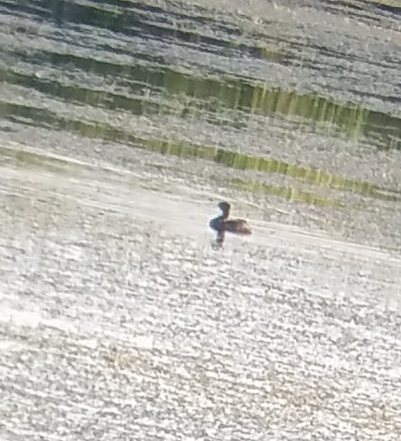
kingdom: Animalia
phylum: Chordata
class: Aves
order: Podicipediformes
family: Podicipedidae
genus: Podilymbus
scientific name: Podilymbus podiceps
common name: Pied-billed grebe
